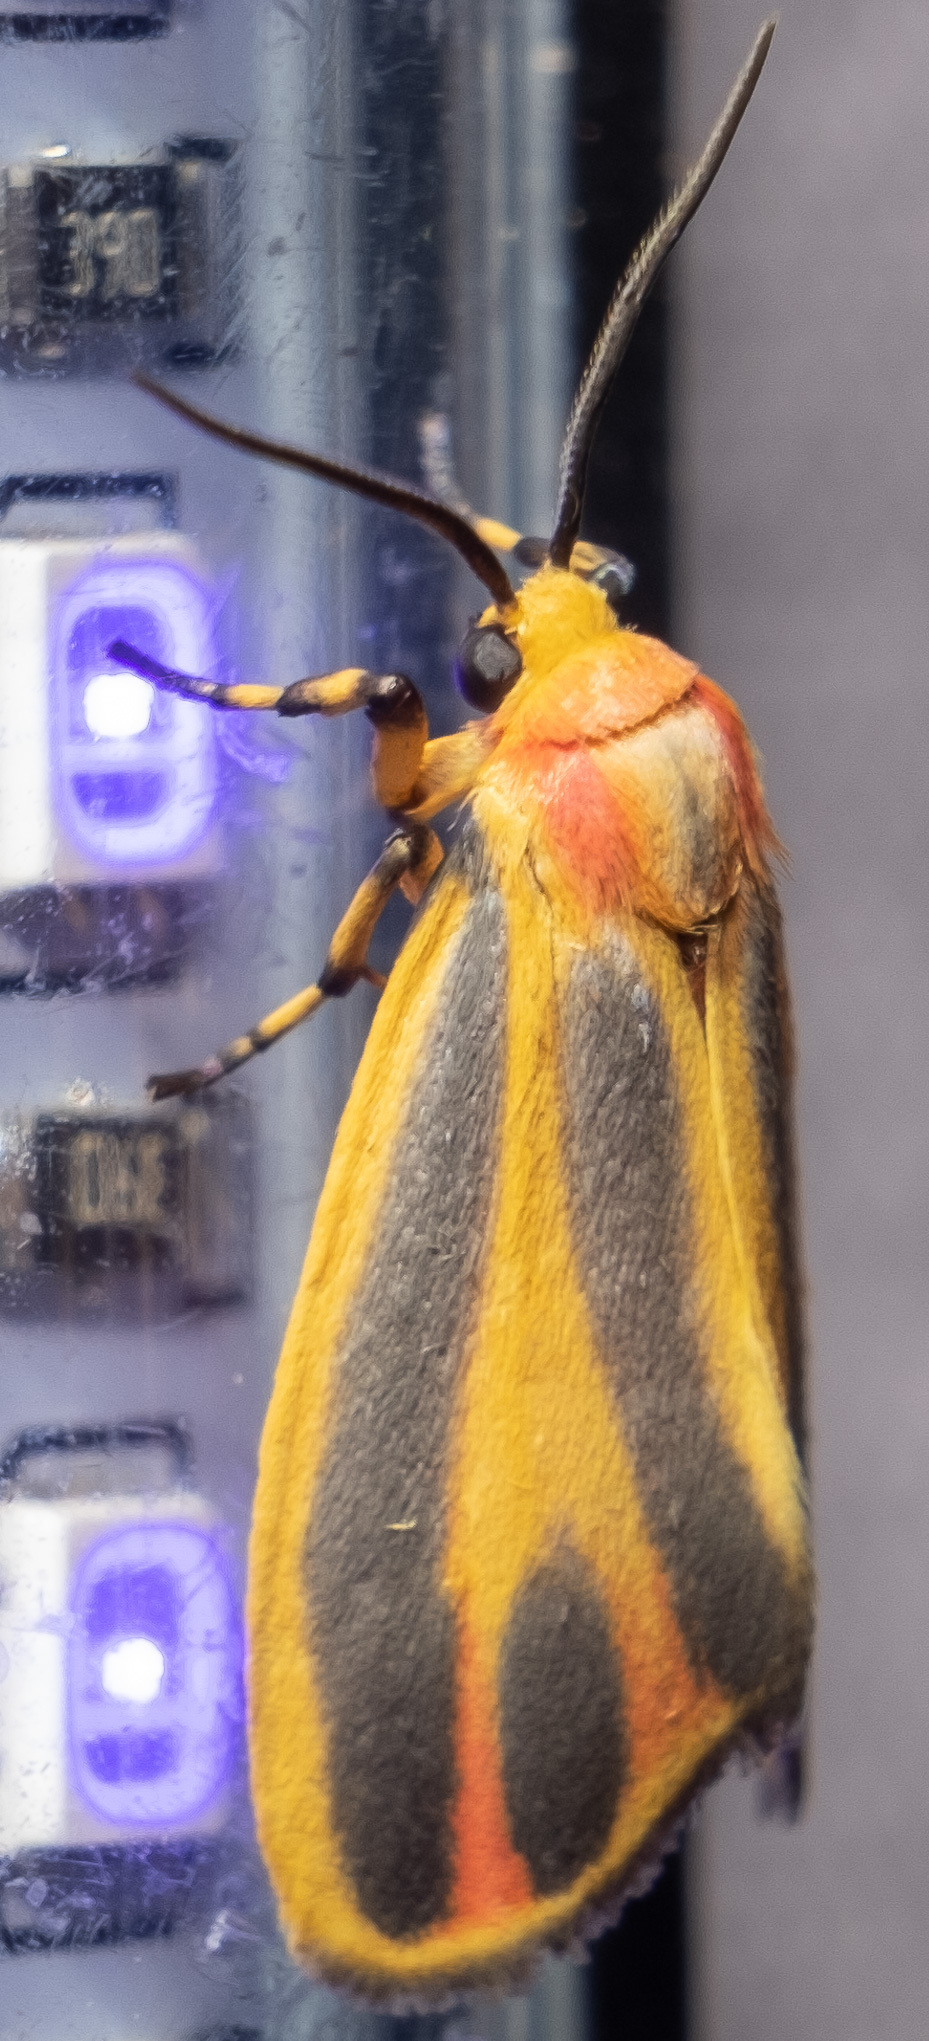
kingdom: Animalia
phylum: Arthropoda
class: Insecta
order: Lepidoptera
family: Erebidae
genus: Hypoprepia
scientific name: Hypoprepia fucosa
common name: Painted lichen moth
